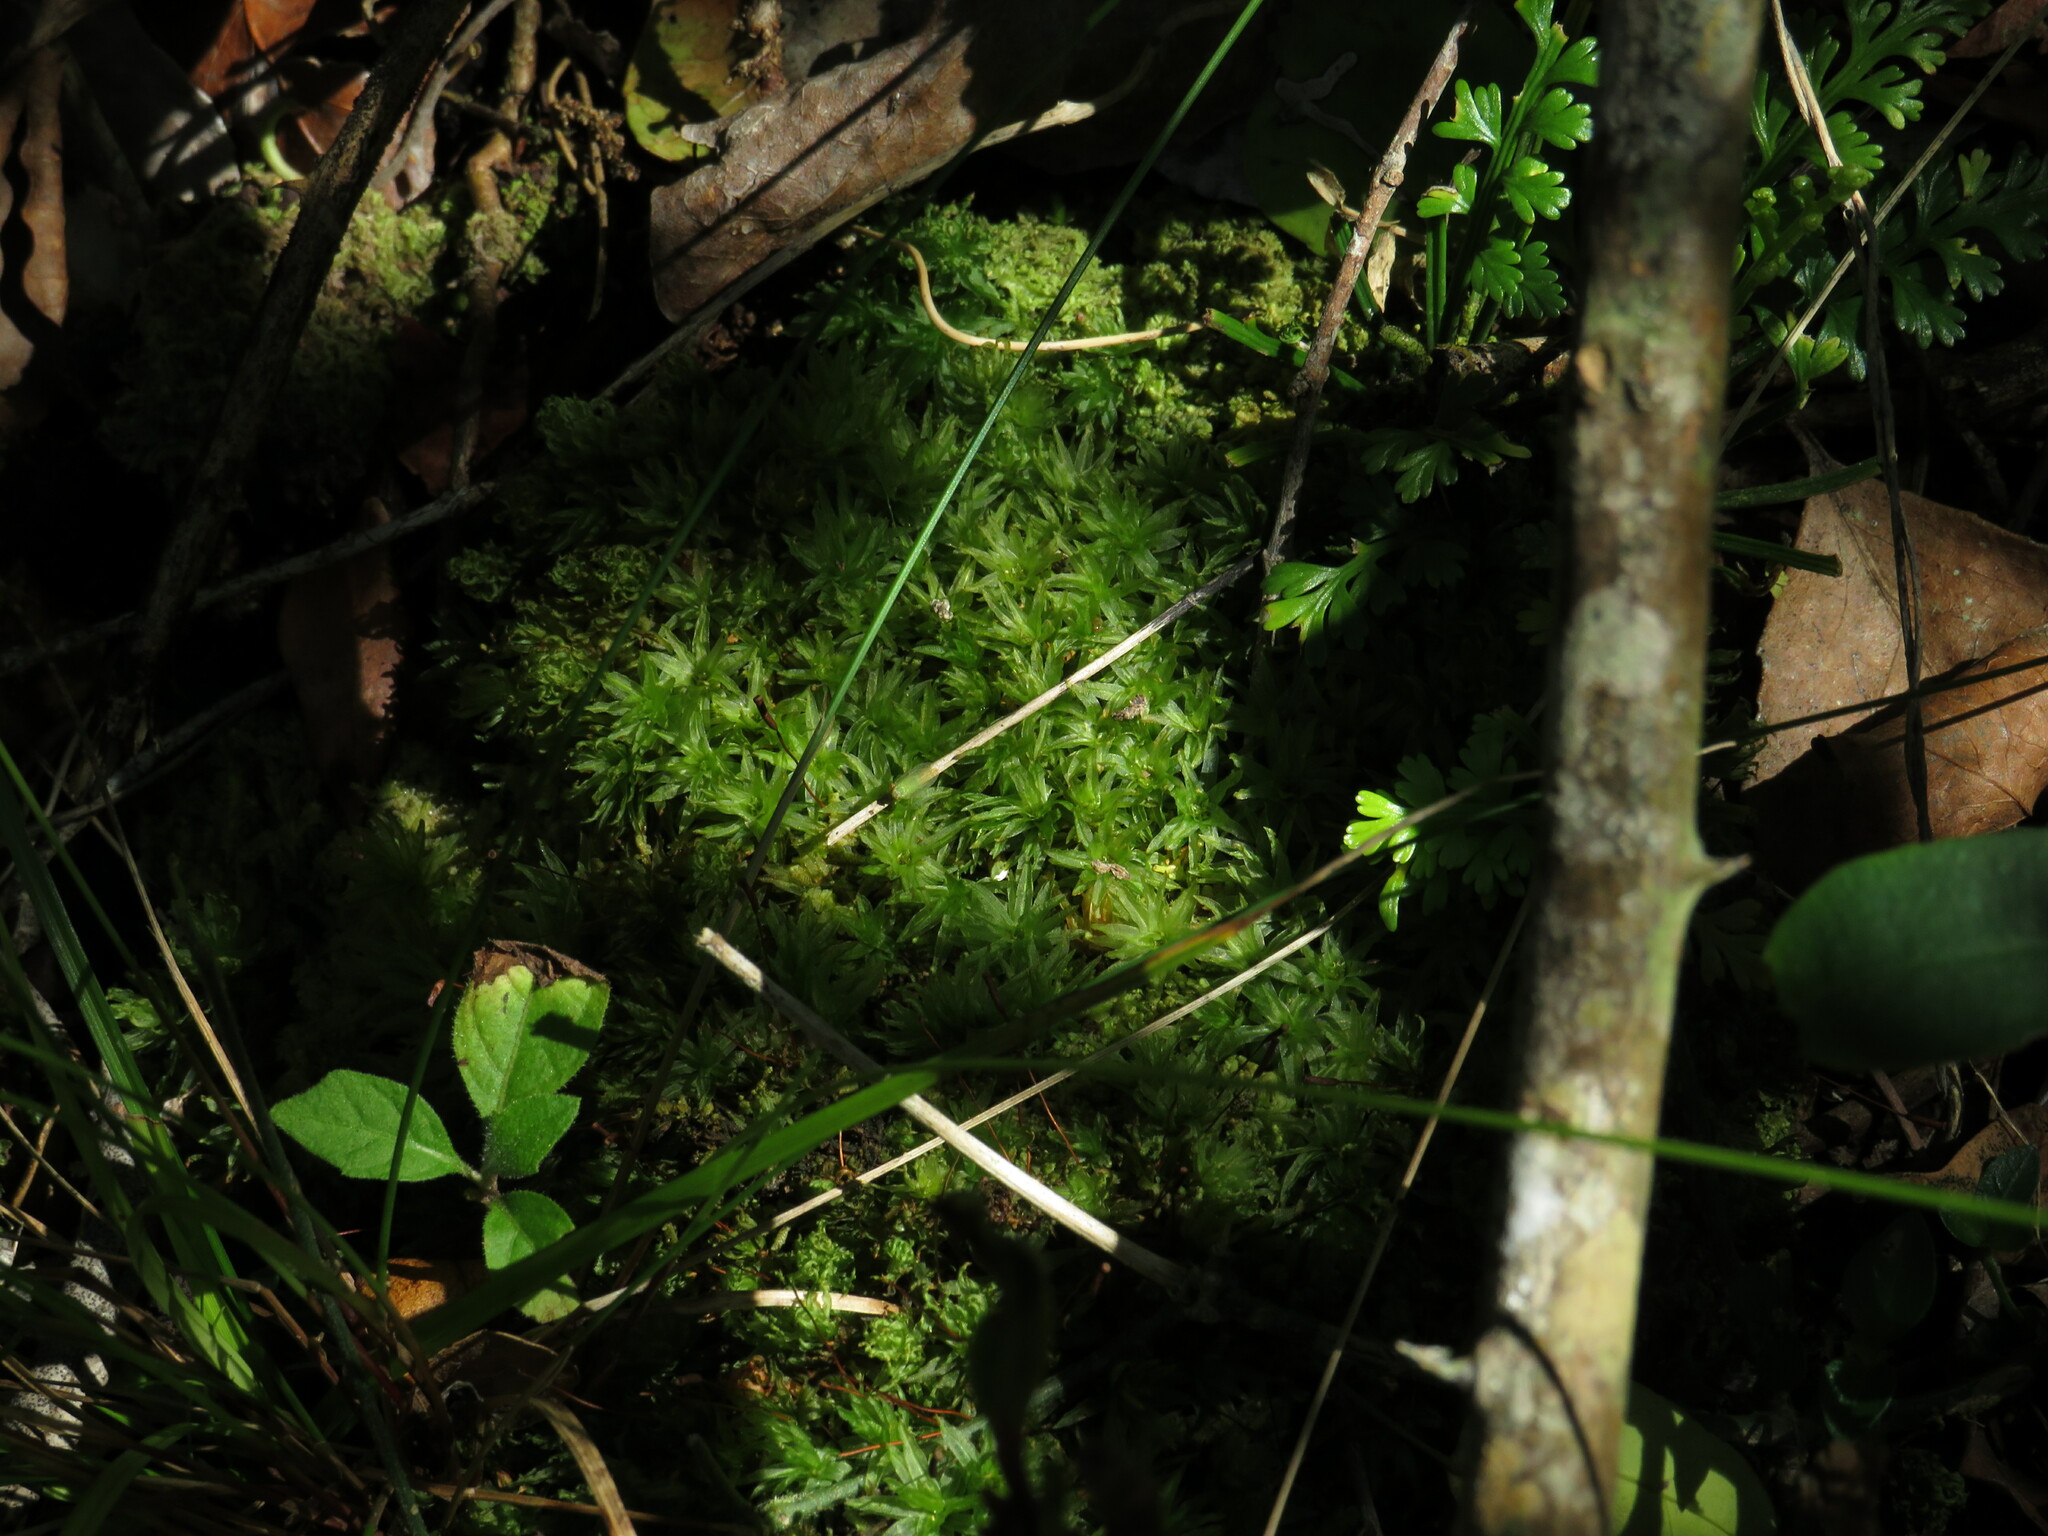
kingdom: Plantae
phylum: Bryophyta
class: Polytrichopsida
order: Polytrichales
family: Polytrichaceae
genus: Atrichum
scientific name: Atrichum androgynum
